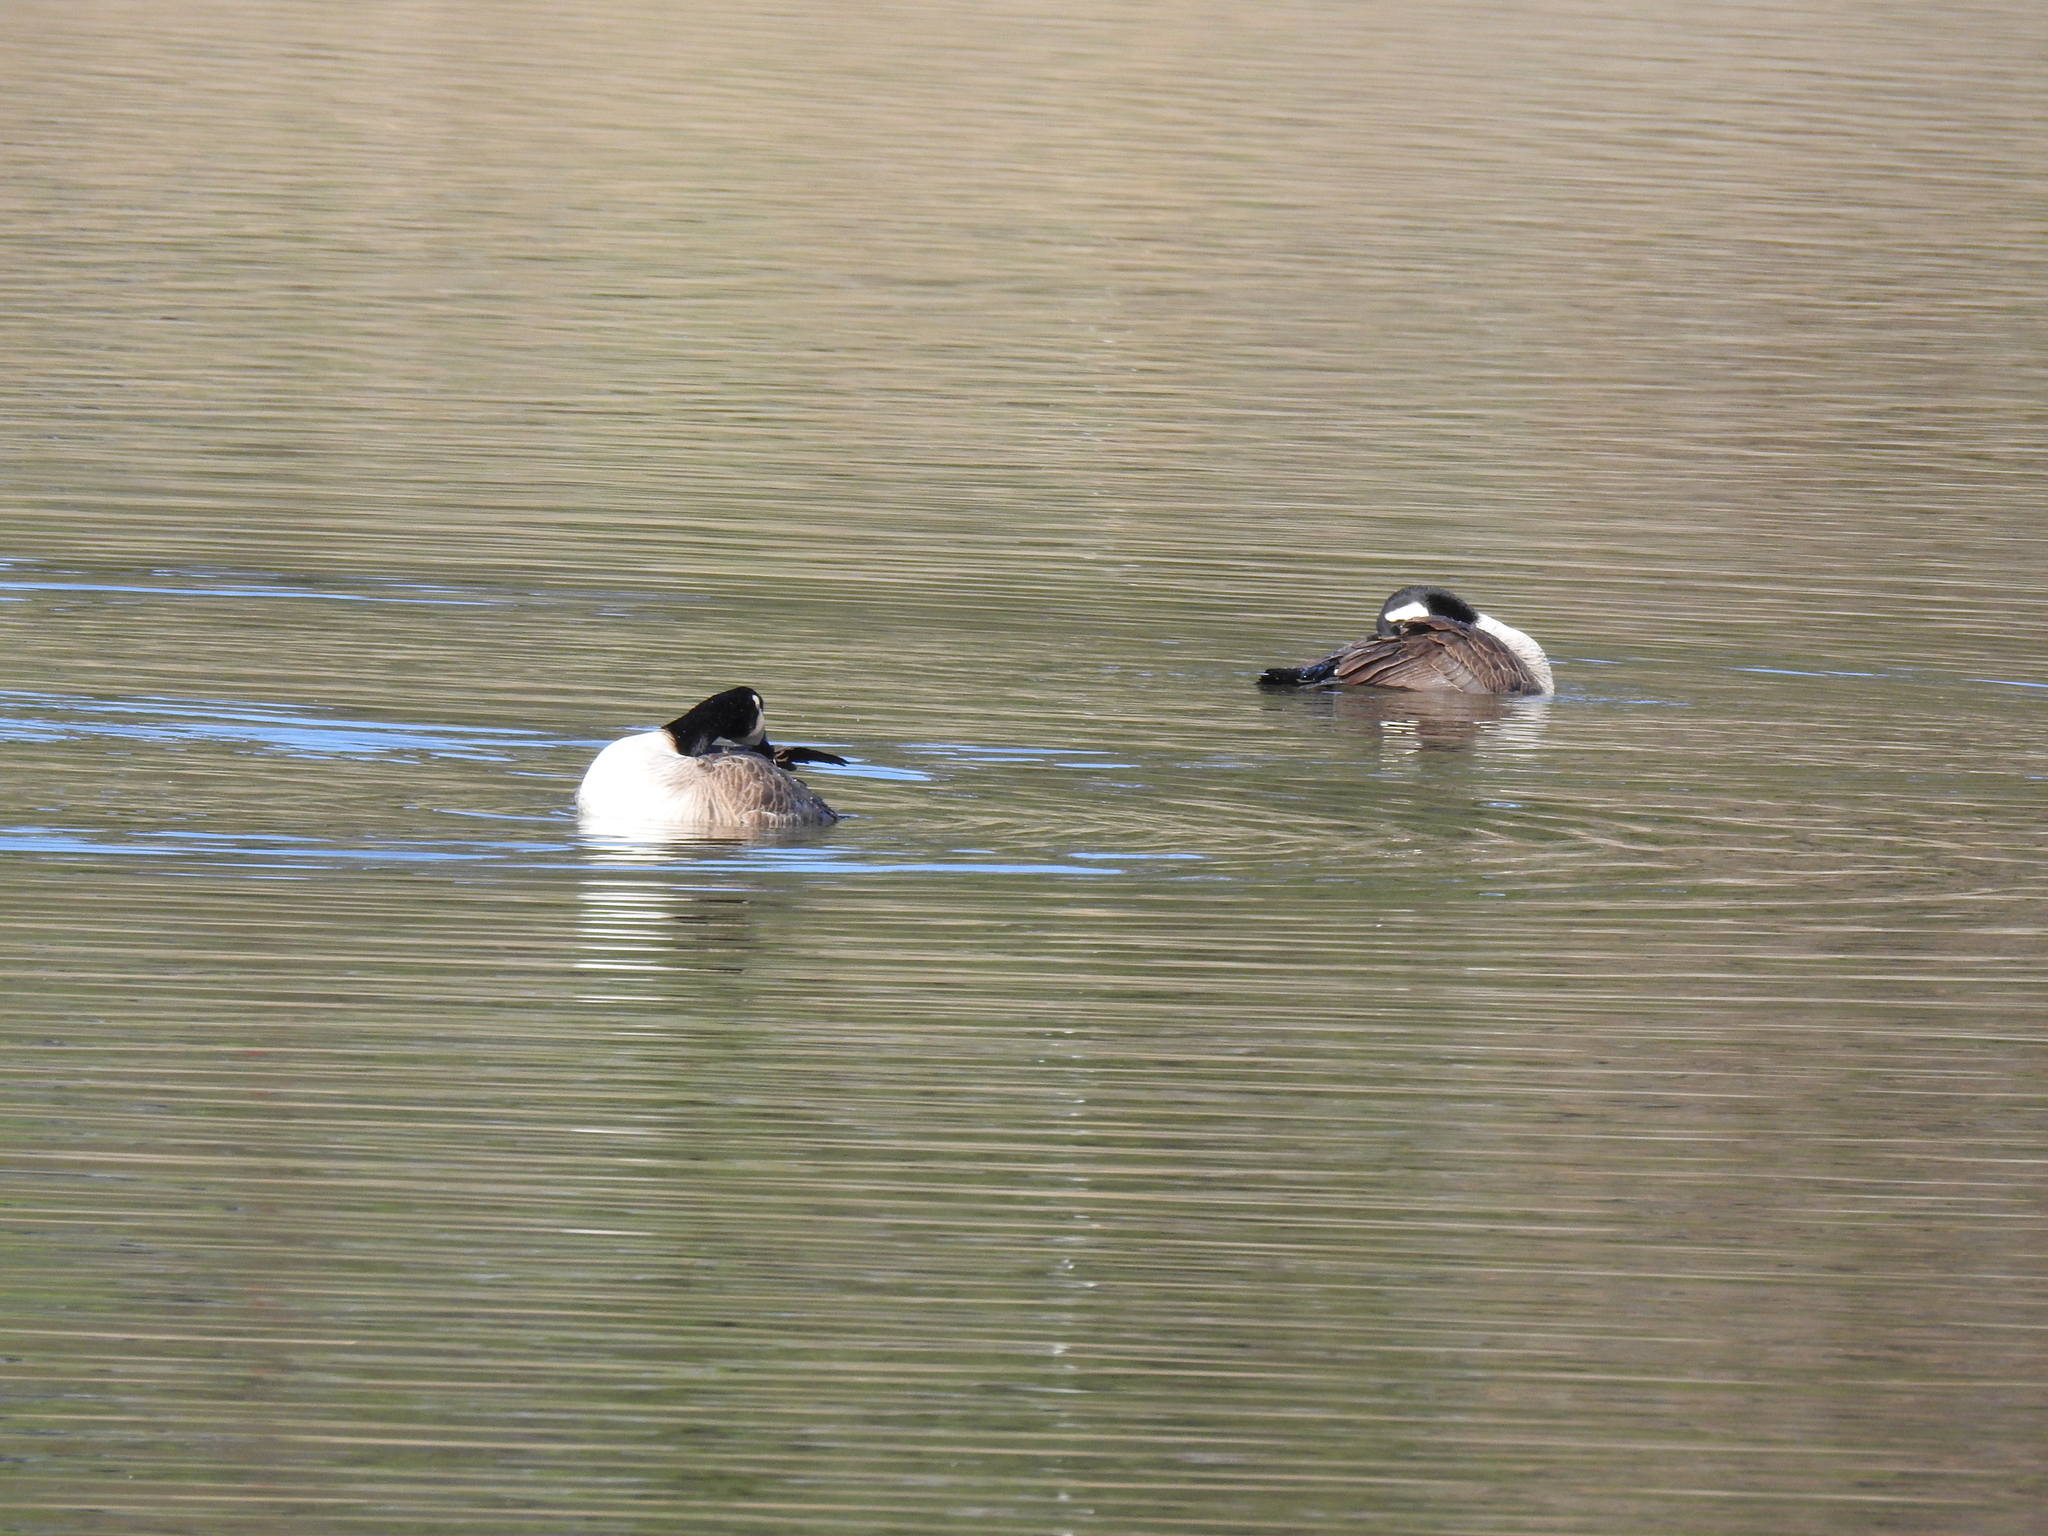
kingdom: Animalia
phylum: Chordata
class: Aves
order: Anseriformes
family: Anatidae
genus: Branta
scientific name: Branta canadensis
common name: Canada goose
